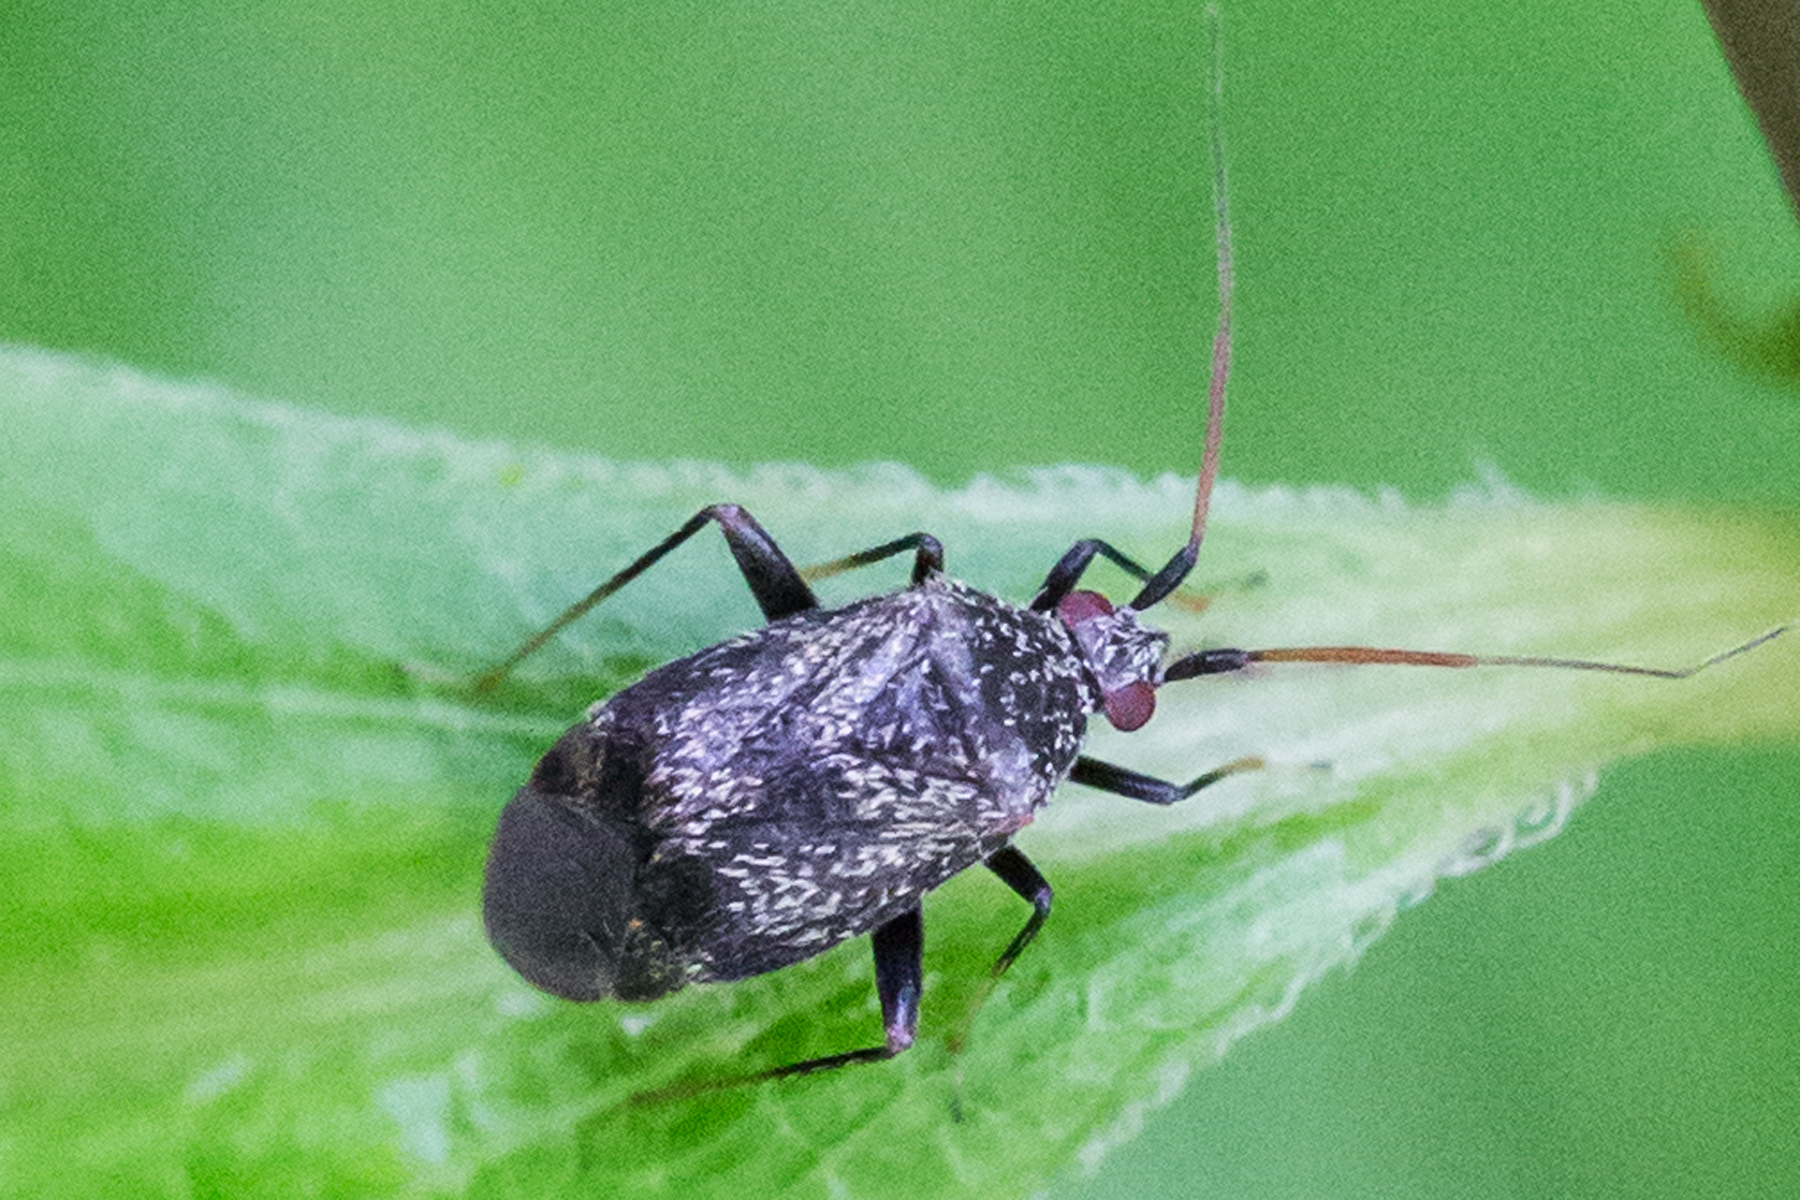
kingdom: Animalia
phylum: Arthropoda
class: Insecta
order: Hemiptera
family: Miridae
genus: Texocoris
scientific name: Texocoris nigrellus
